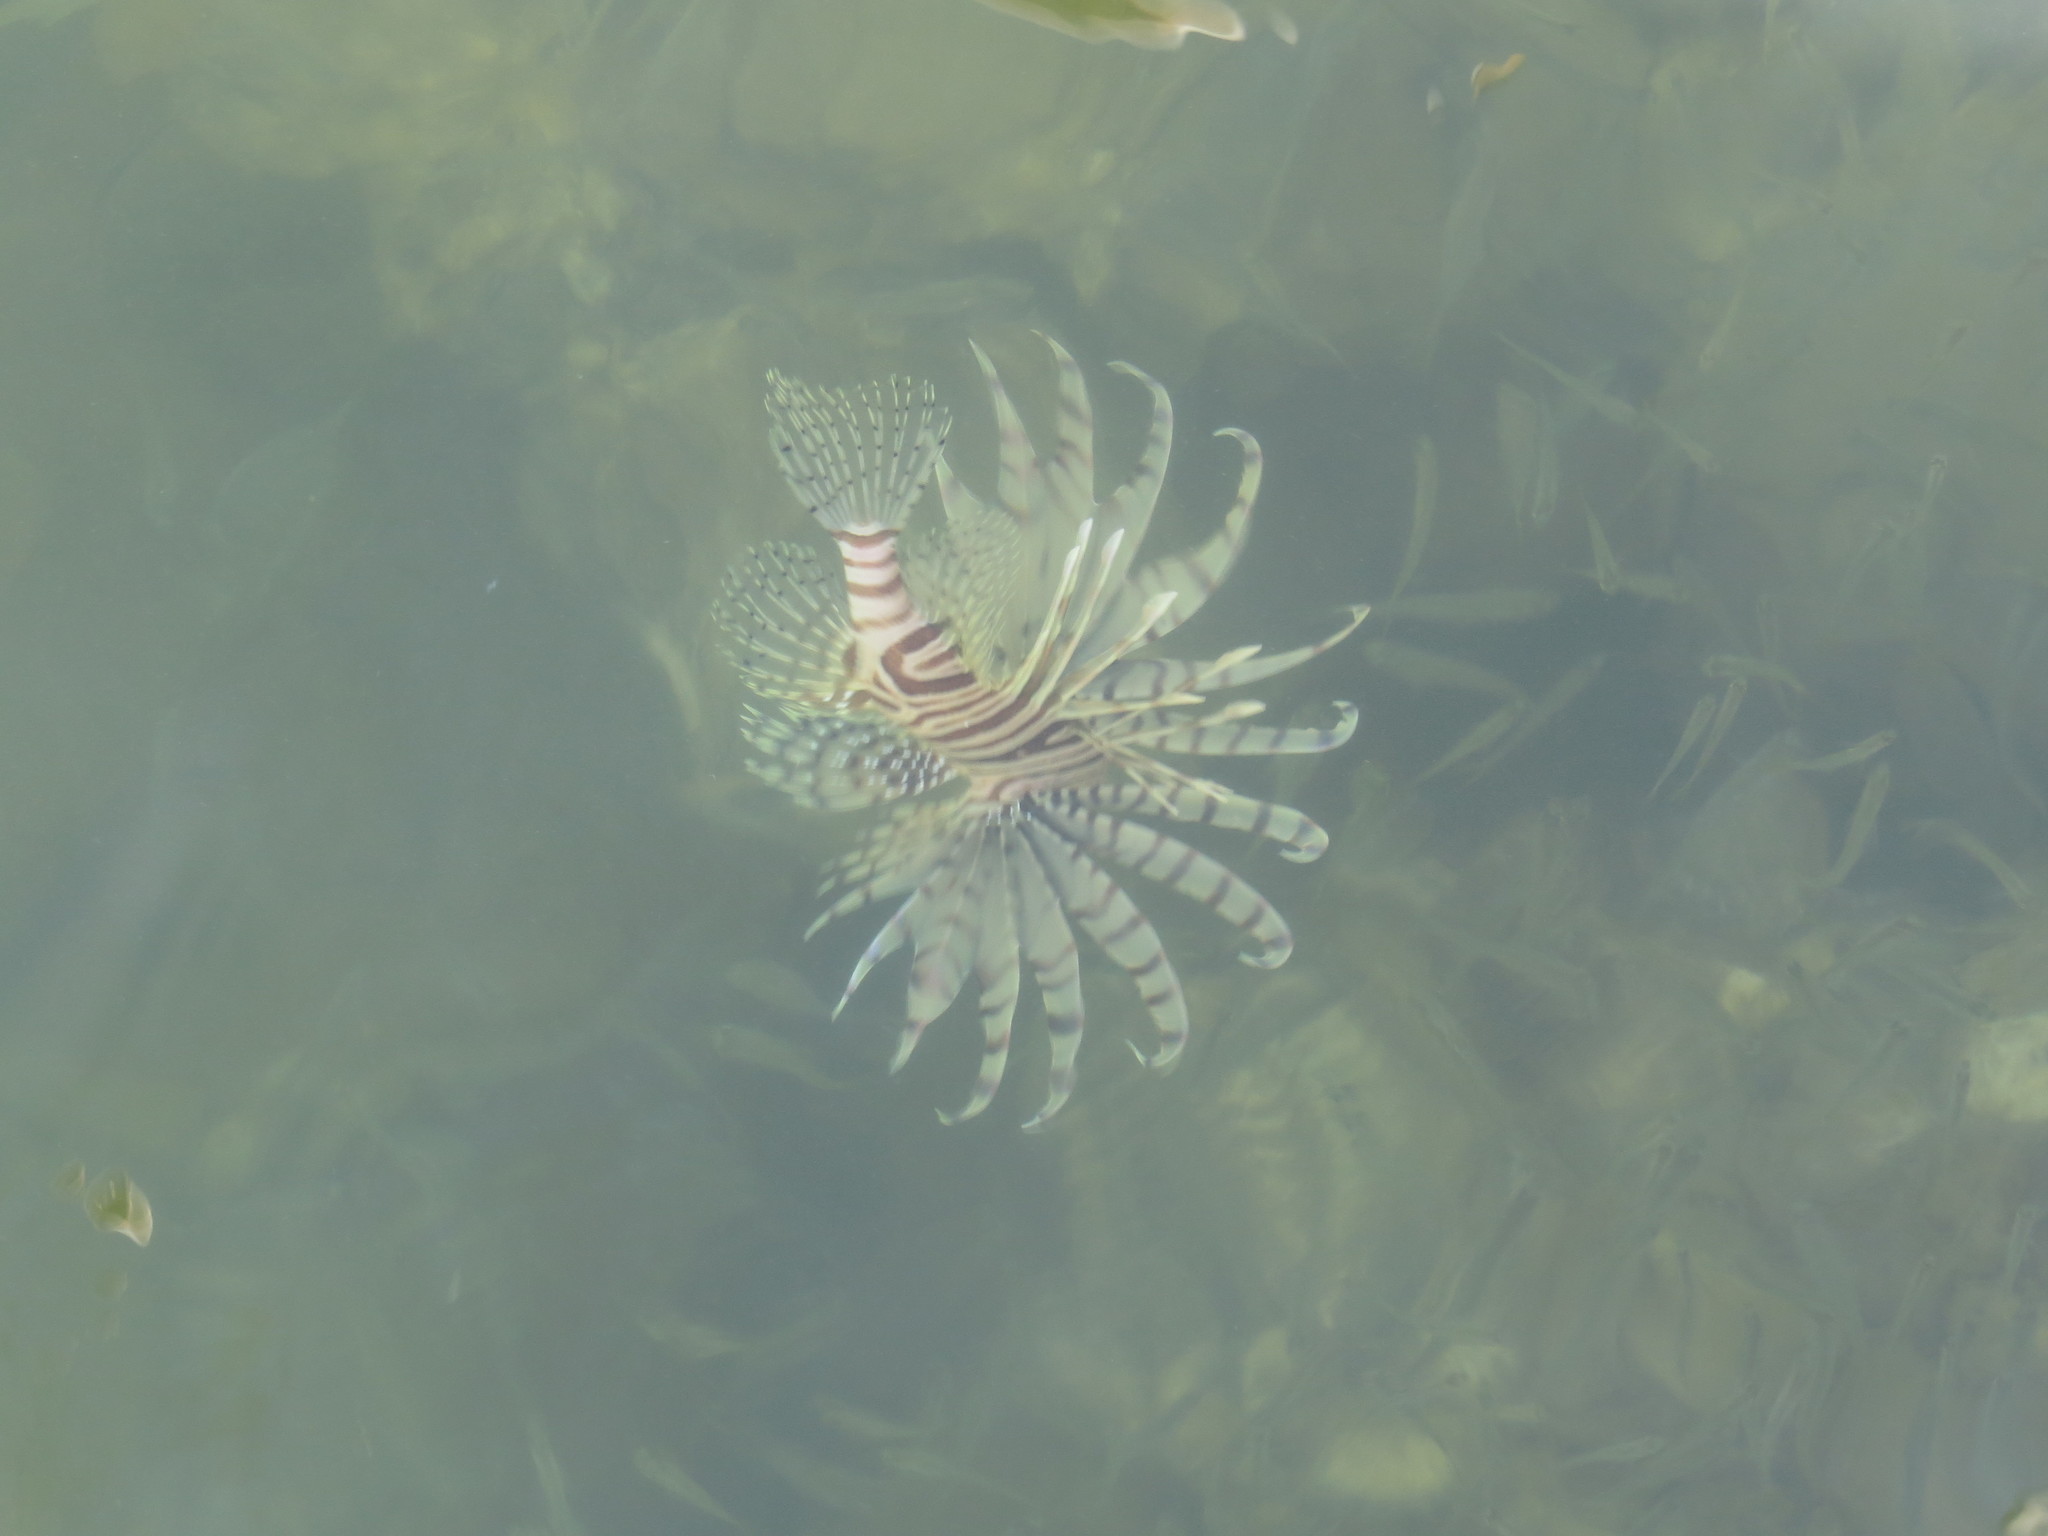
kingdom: Animalia
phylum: Chordata
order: Scorpaeniformes
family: Scorpaenidae
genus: Pterois
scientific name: Pterois volitans
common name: Lionfish
